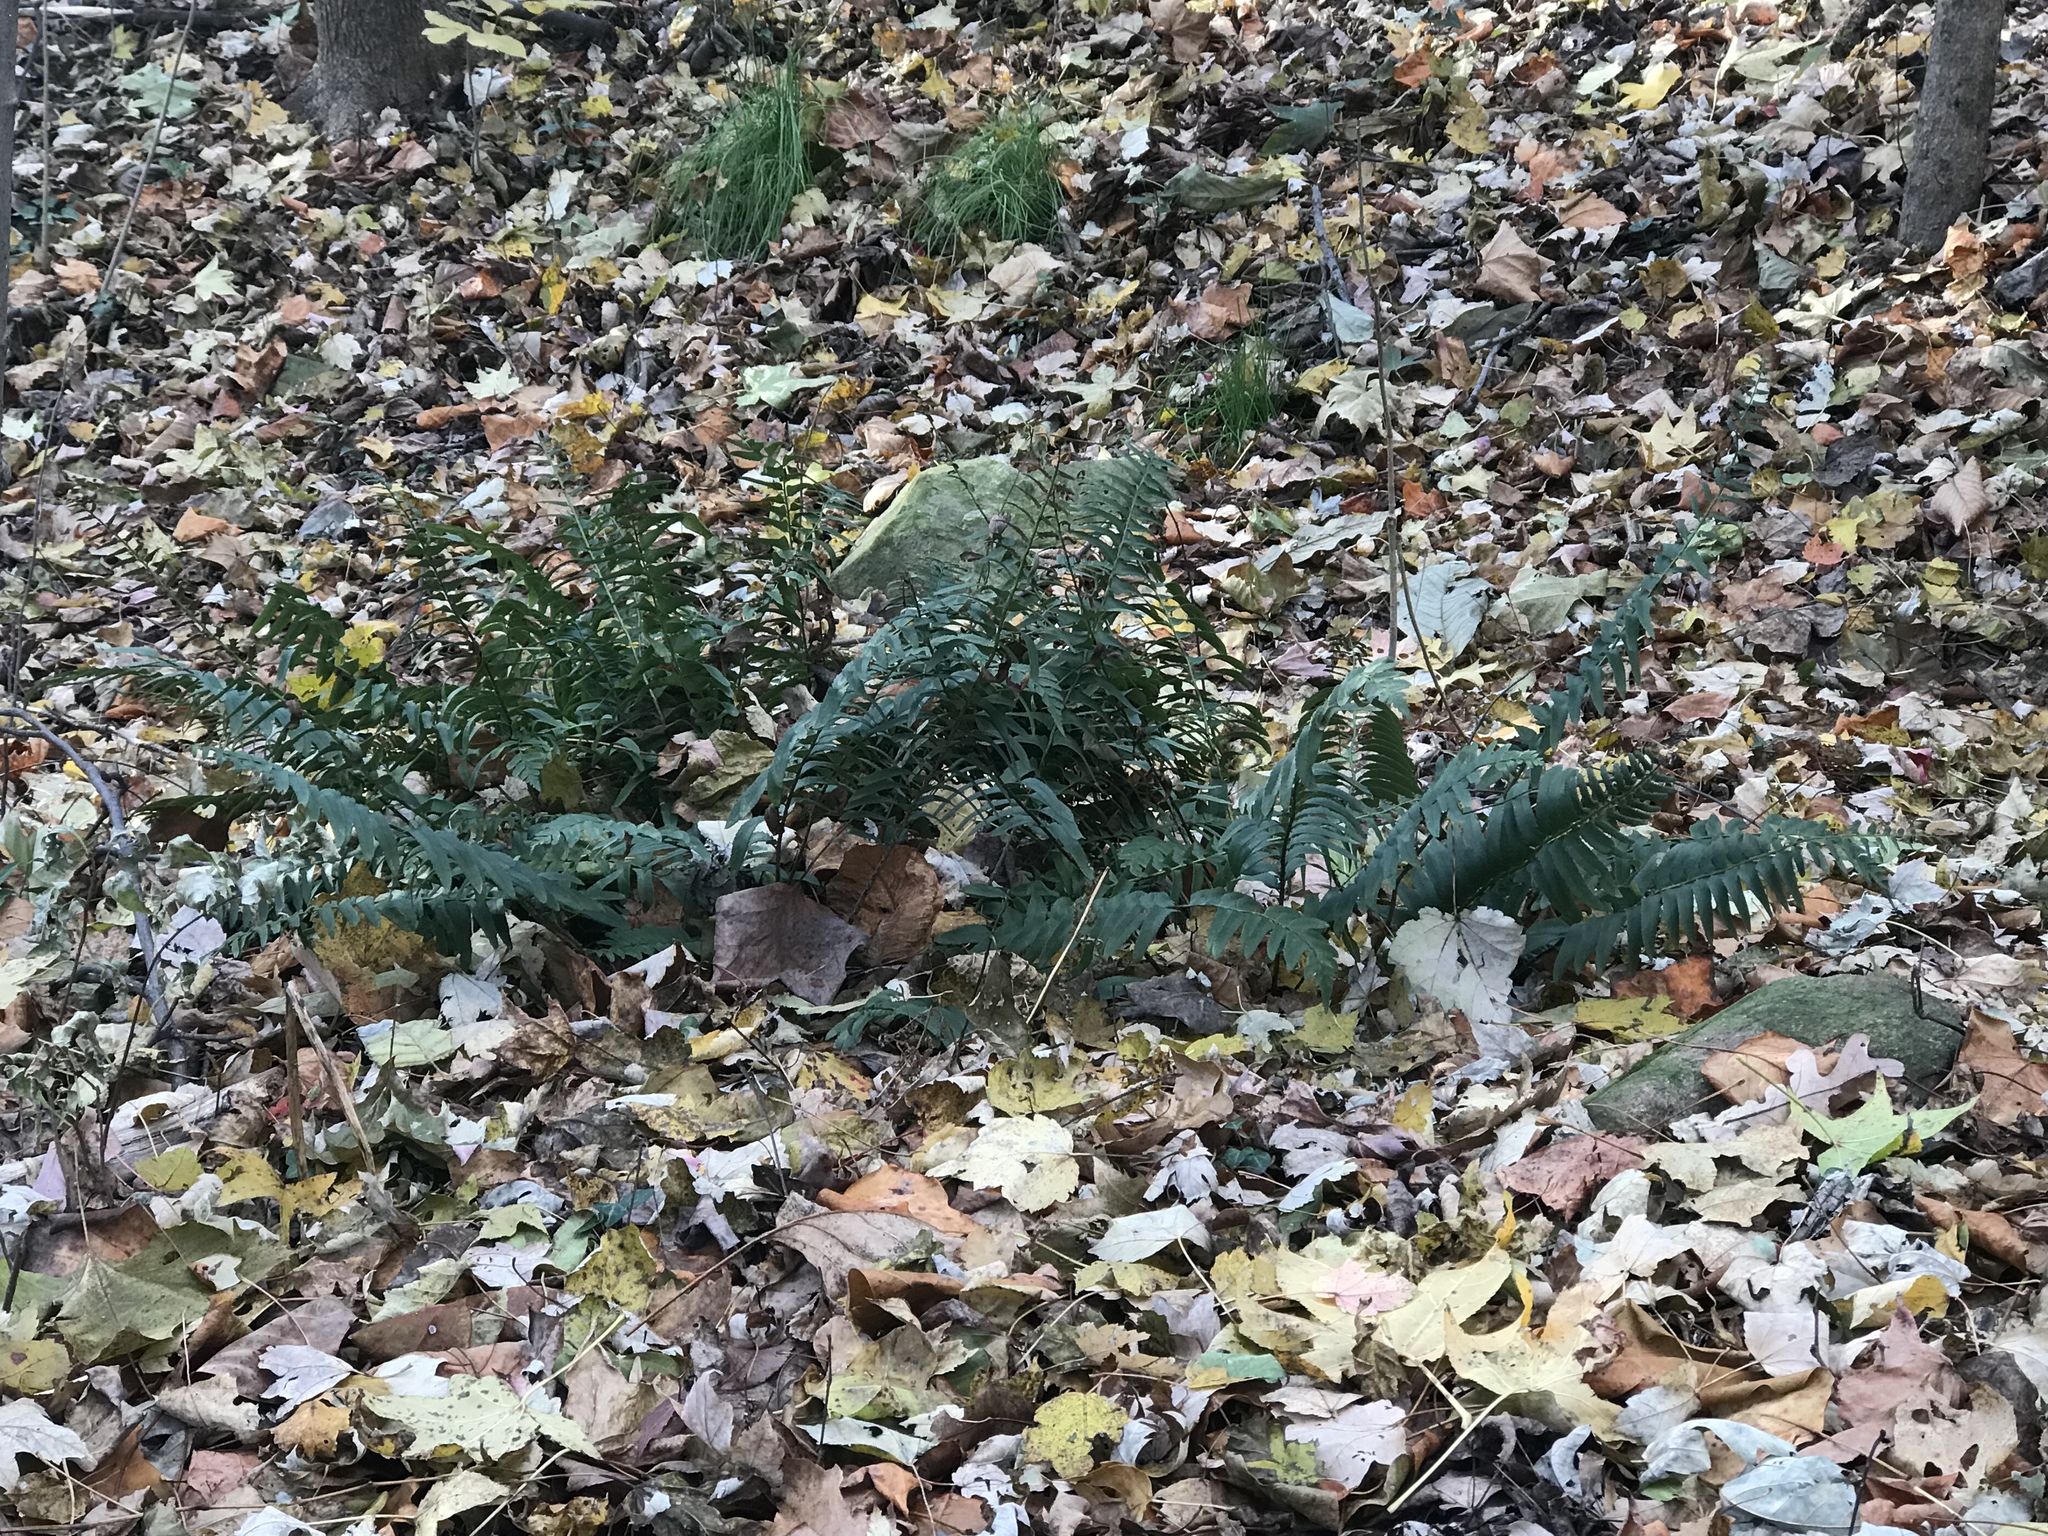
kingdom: Plantae
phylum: Tracheophyta
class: Polypodiopsida
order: Polypodiales
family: Dryopteridaceae
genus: Polystichum
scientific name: Polystichum acrostichoides
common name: Christmas fern
